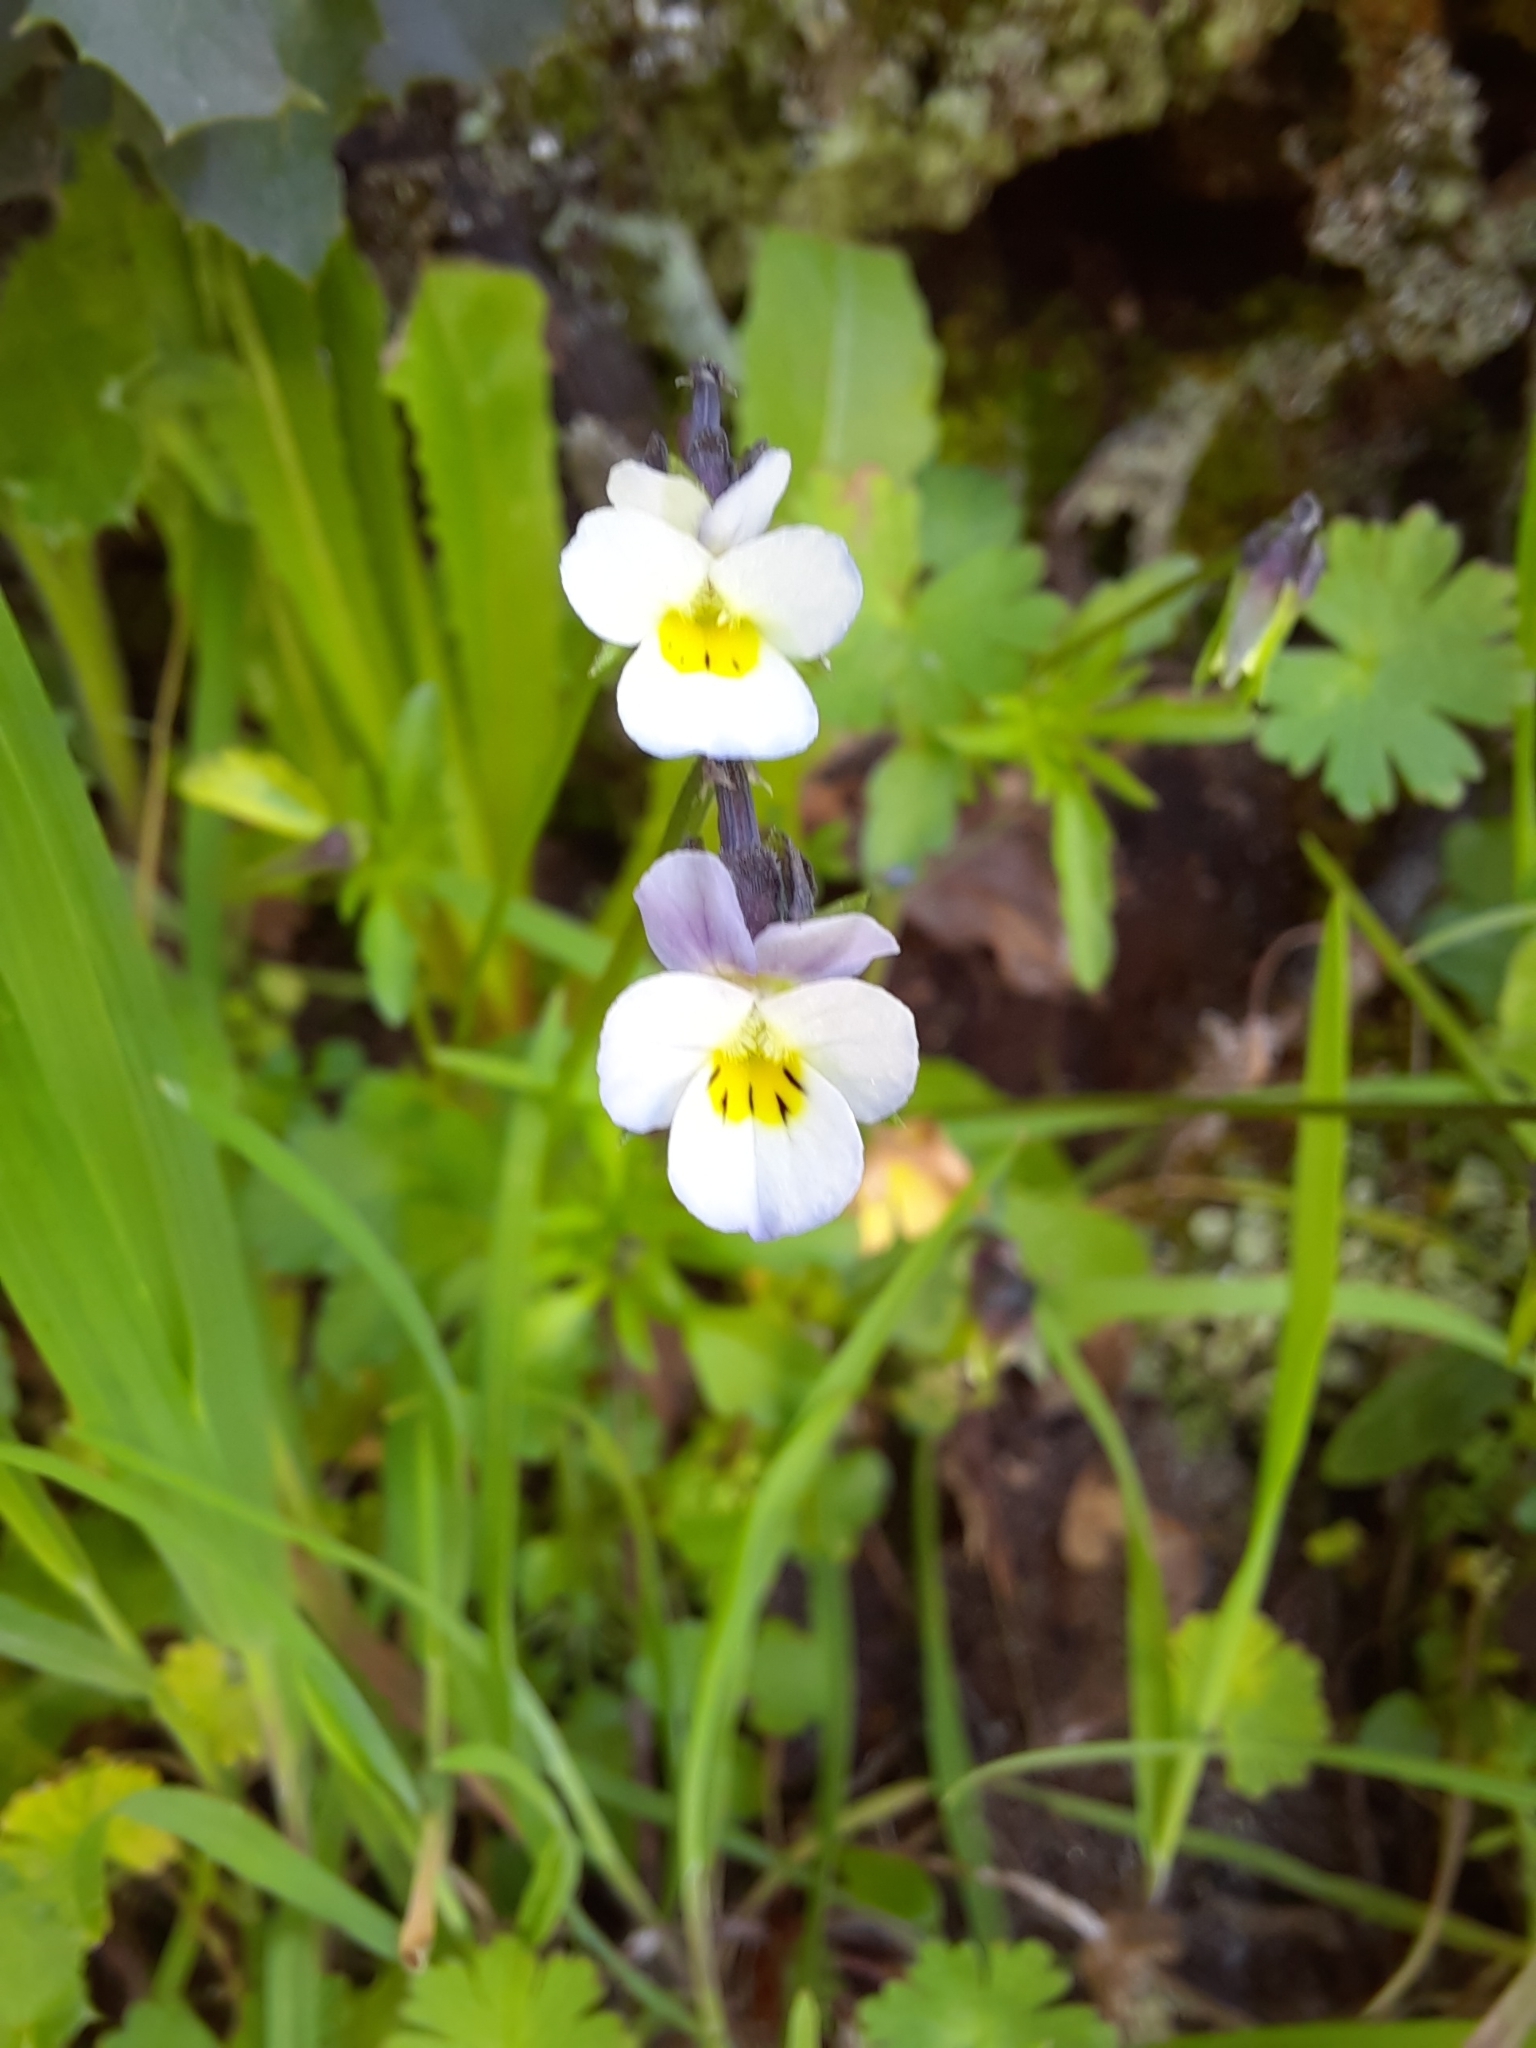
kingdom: Plantae
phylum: Tracheophyta
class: Magnoliopsida
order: Malpighiales
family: Violaceae
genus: Viola
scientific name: Viola kitaibeliana
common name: Dwarf pansy
